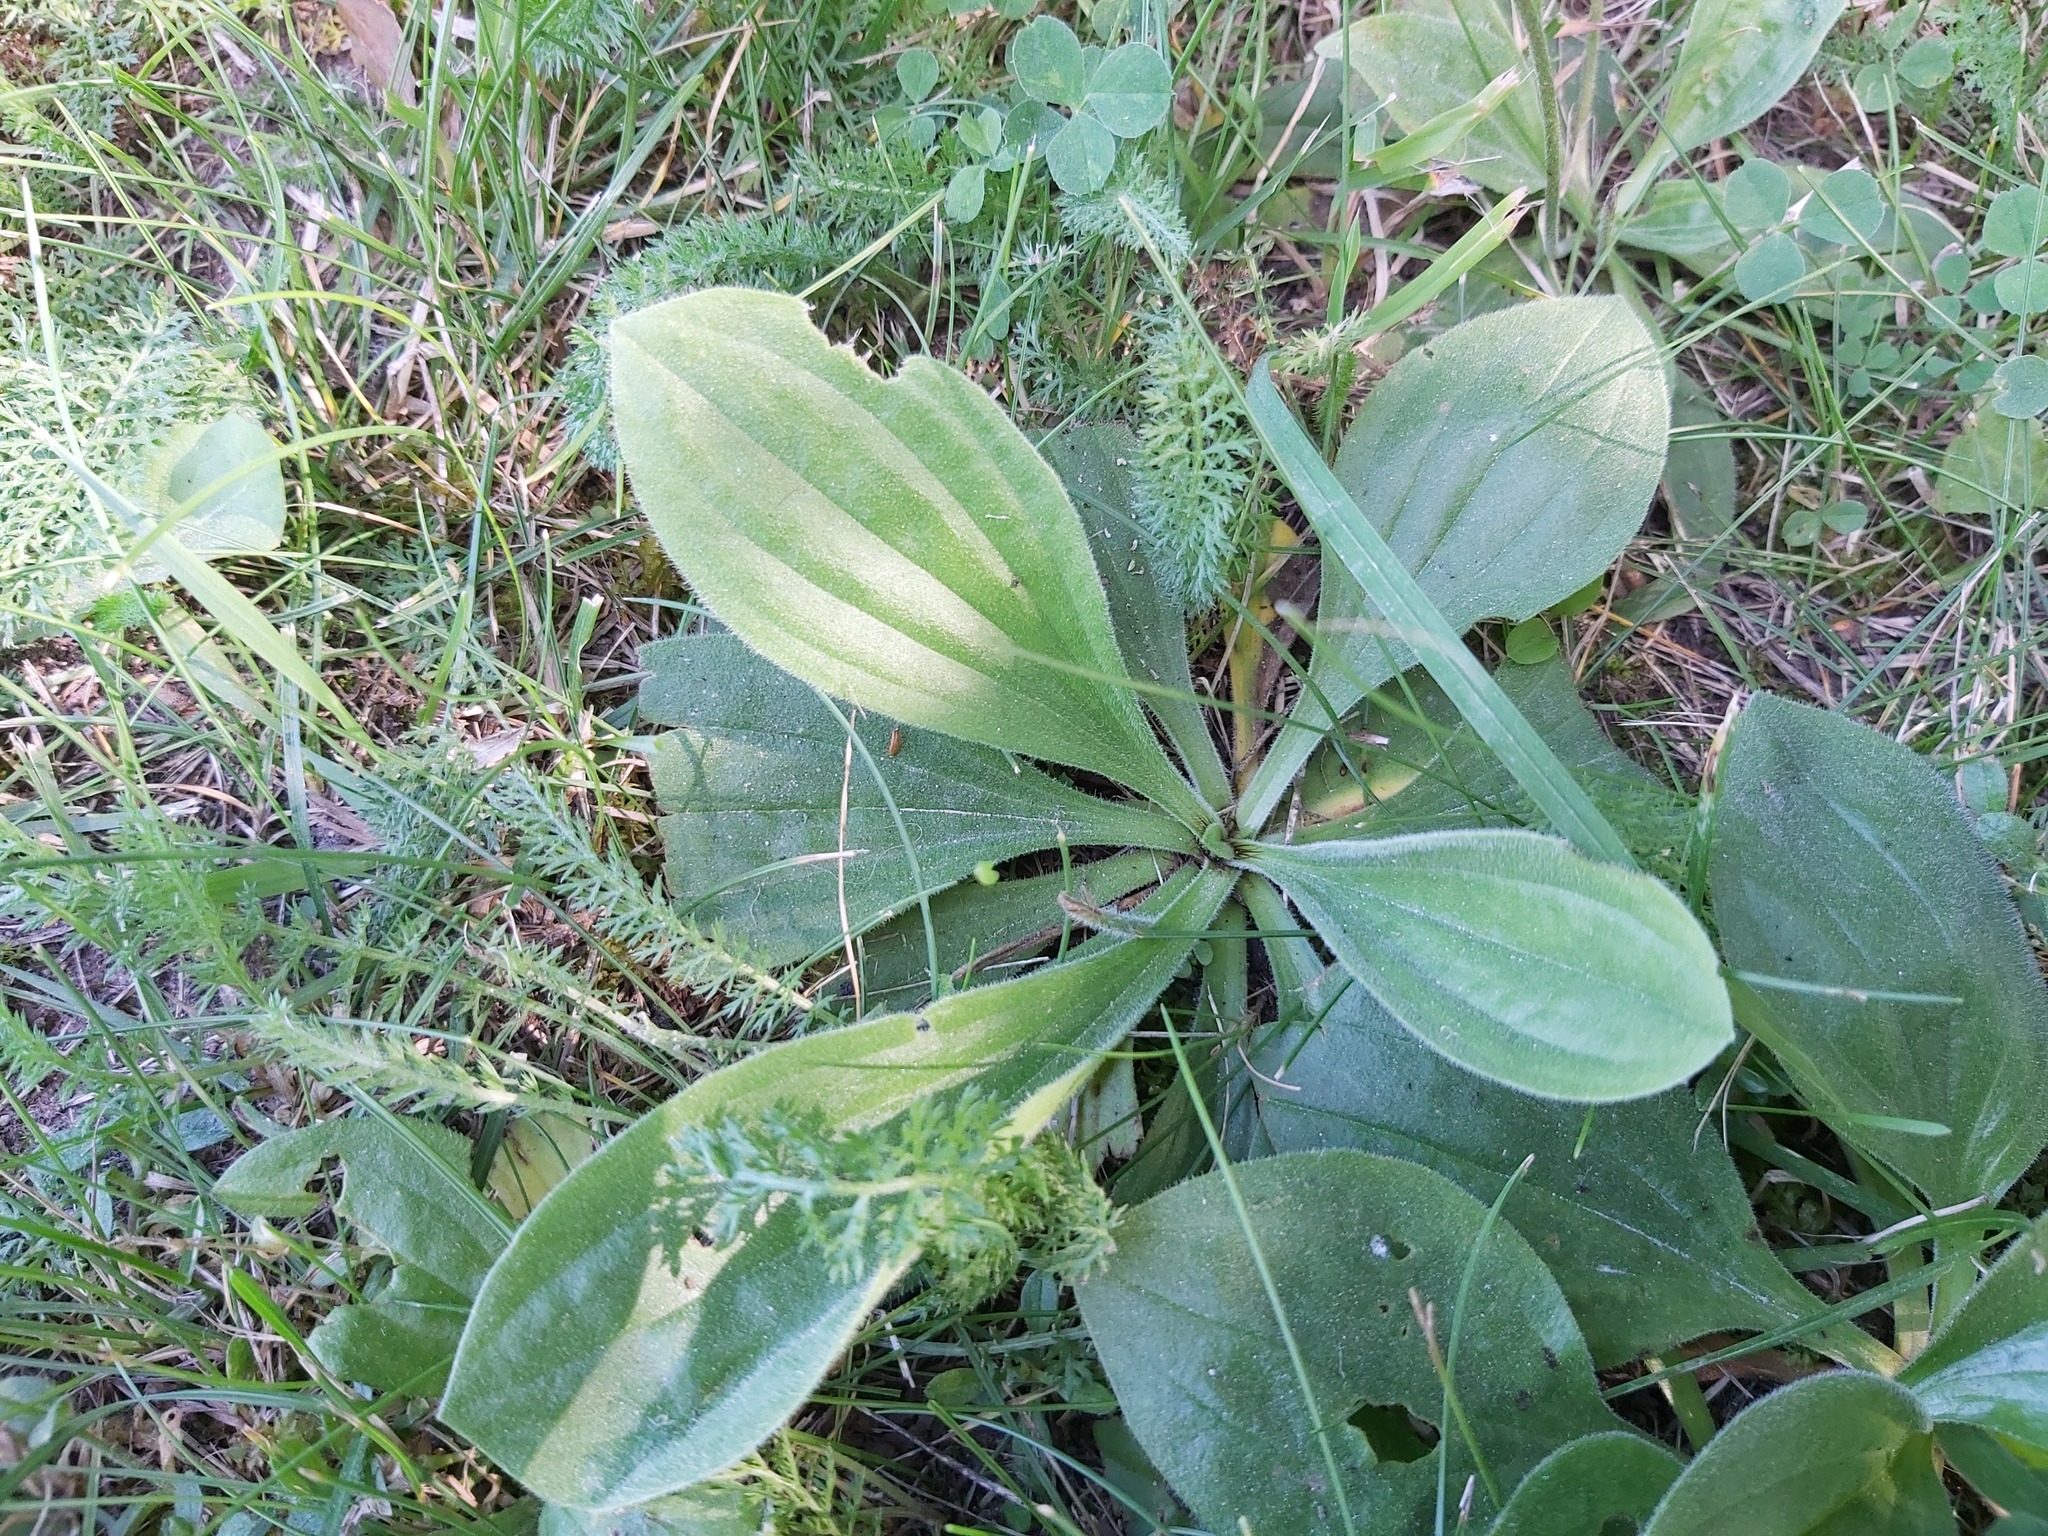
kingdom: Plantae
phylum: Tracheophyta
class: Magnoliopsida
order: Lamiales
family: Plantaginaceae
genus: Plantago
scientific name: Plantago media
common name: Hoary plantain
